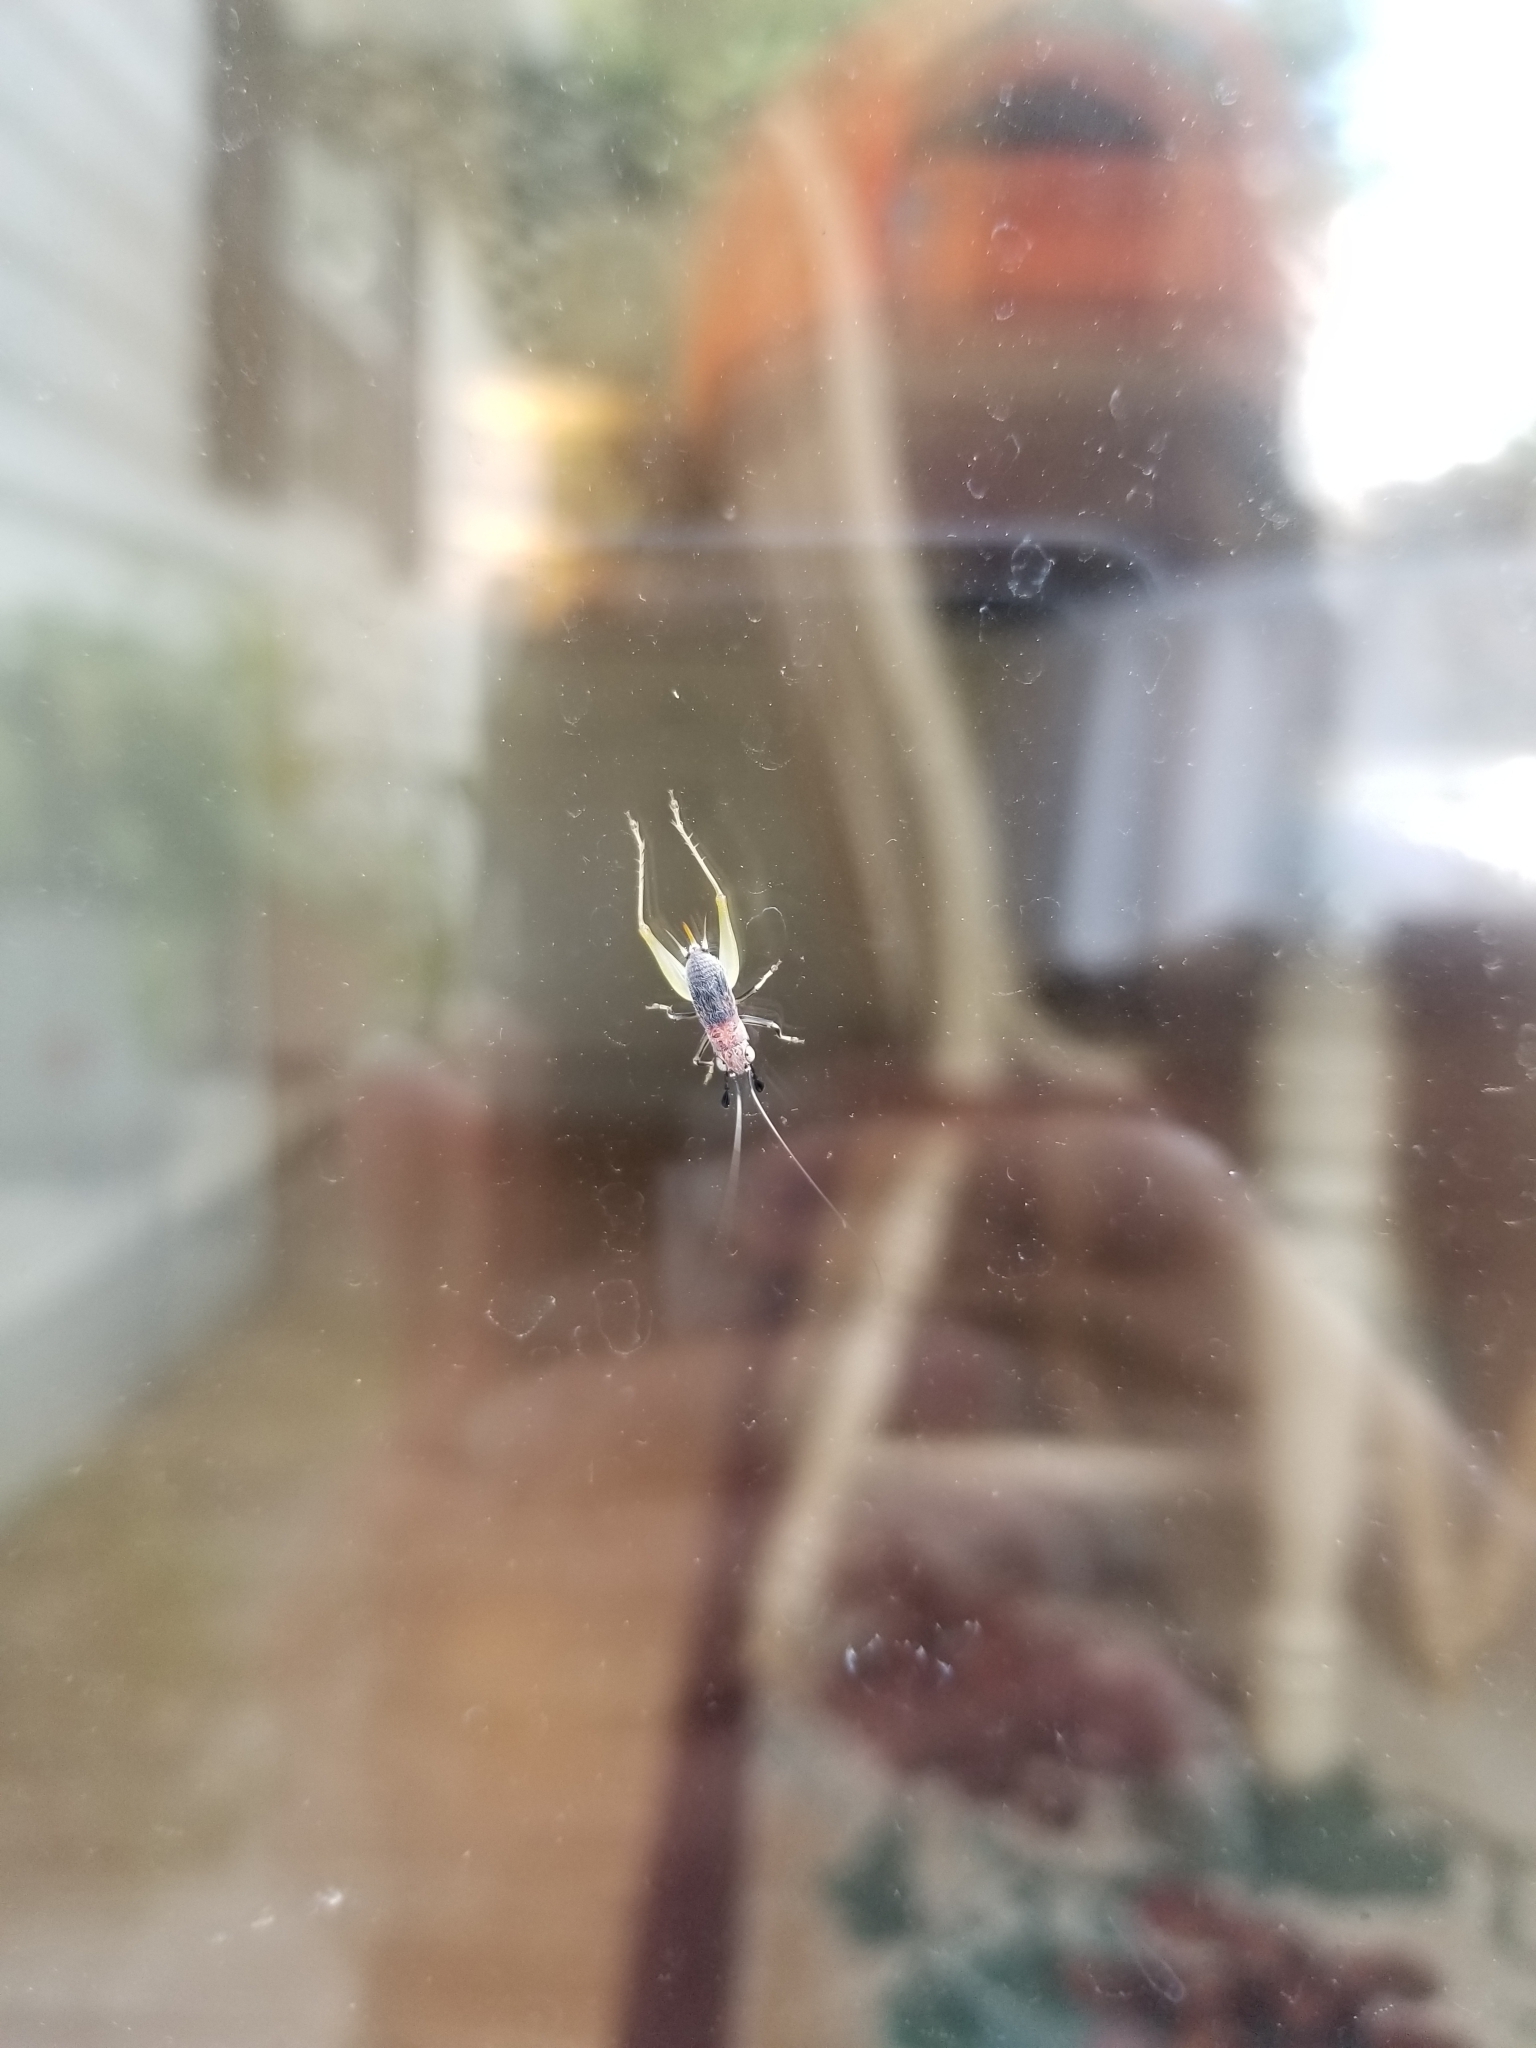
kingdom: Animalia
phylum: Arthropoda
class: Insecta
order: Orthoptera
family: Trigonidiidae
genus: Phyllopalpus
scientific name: Phyllopalpus pulchellus
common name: Handsome trig
